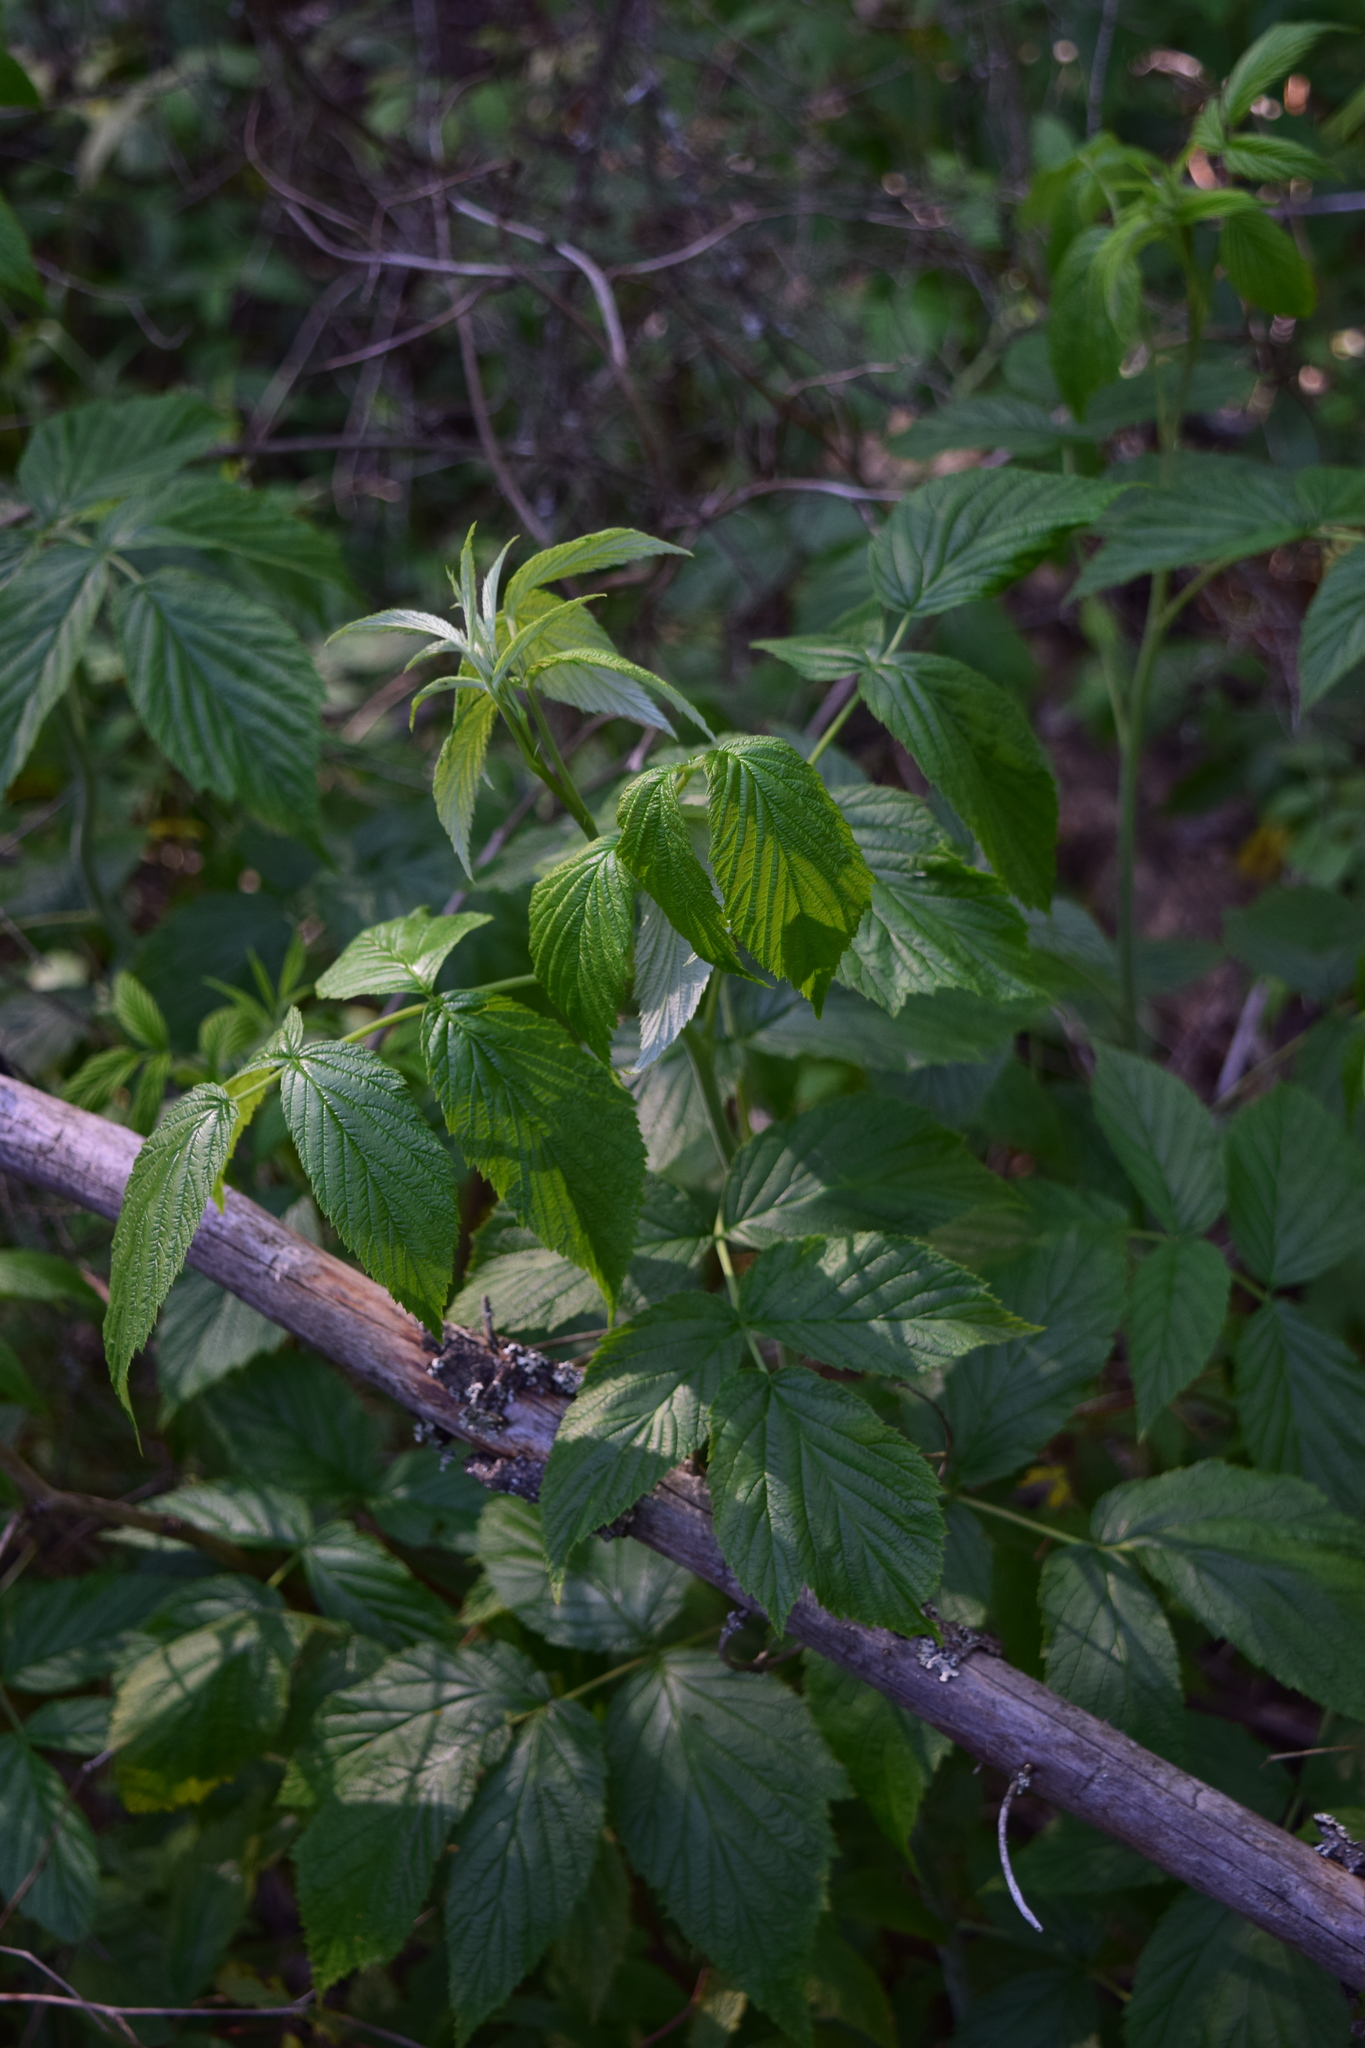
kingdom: Plantae
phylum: Tracheophyta
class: Magnoliopsida
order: Rosales
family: Rosaceae
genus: Rubus
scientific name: Rubus idaeus
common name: Raspberry
